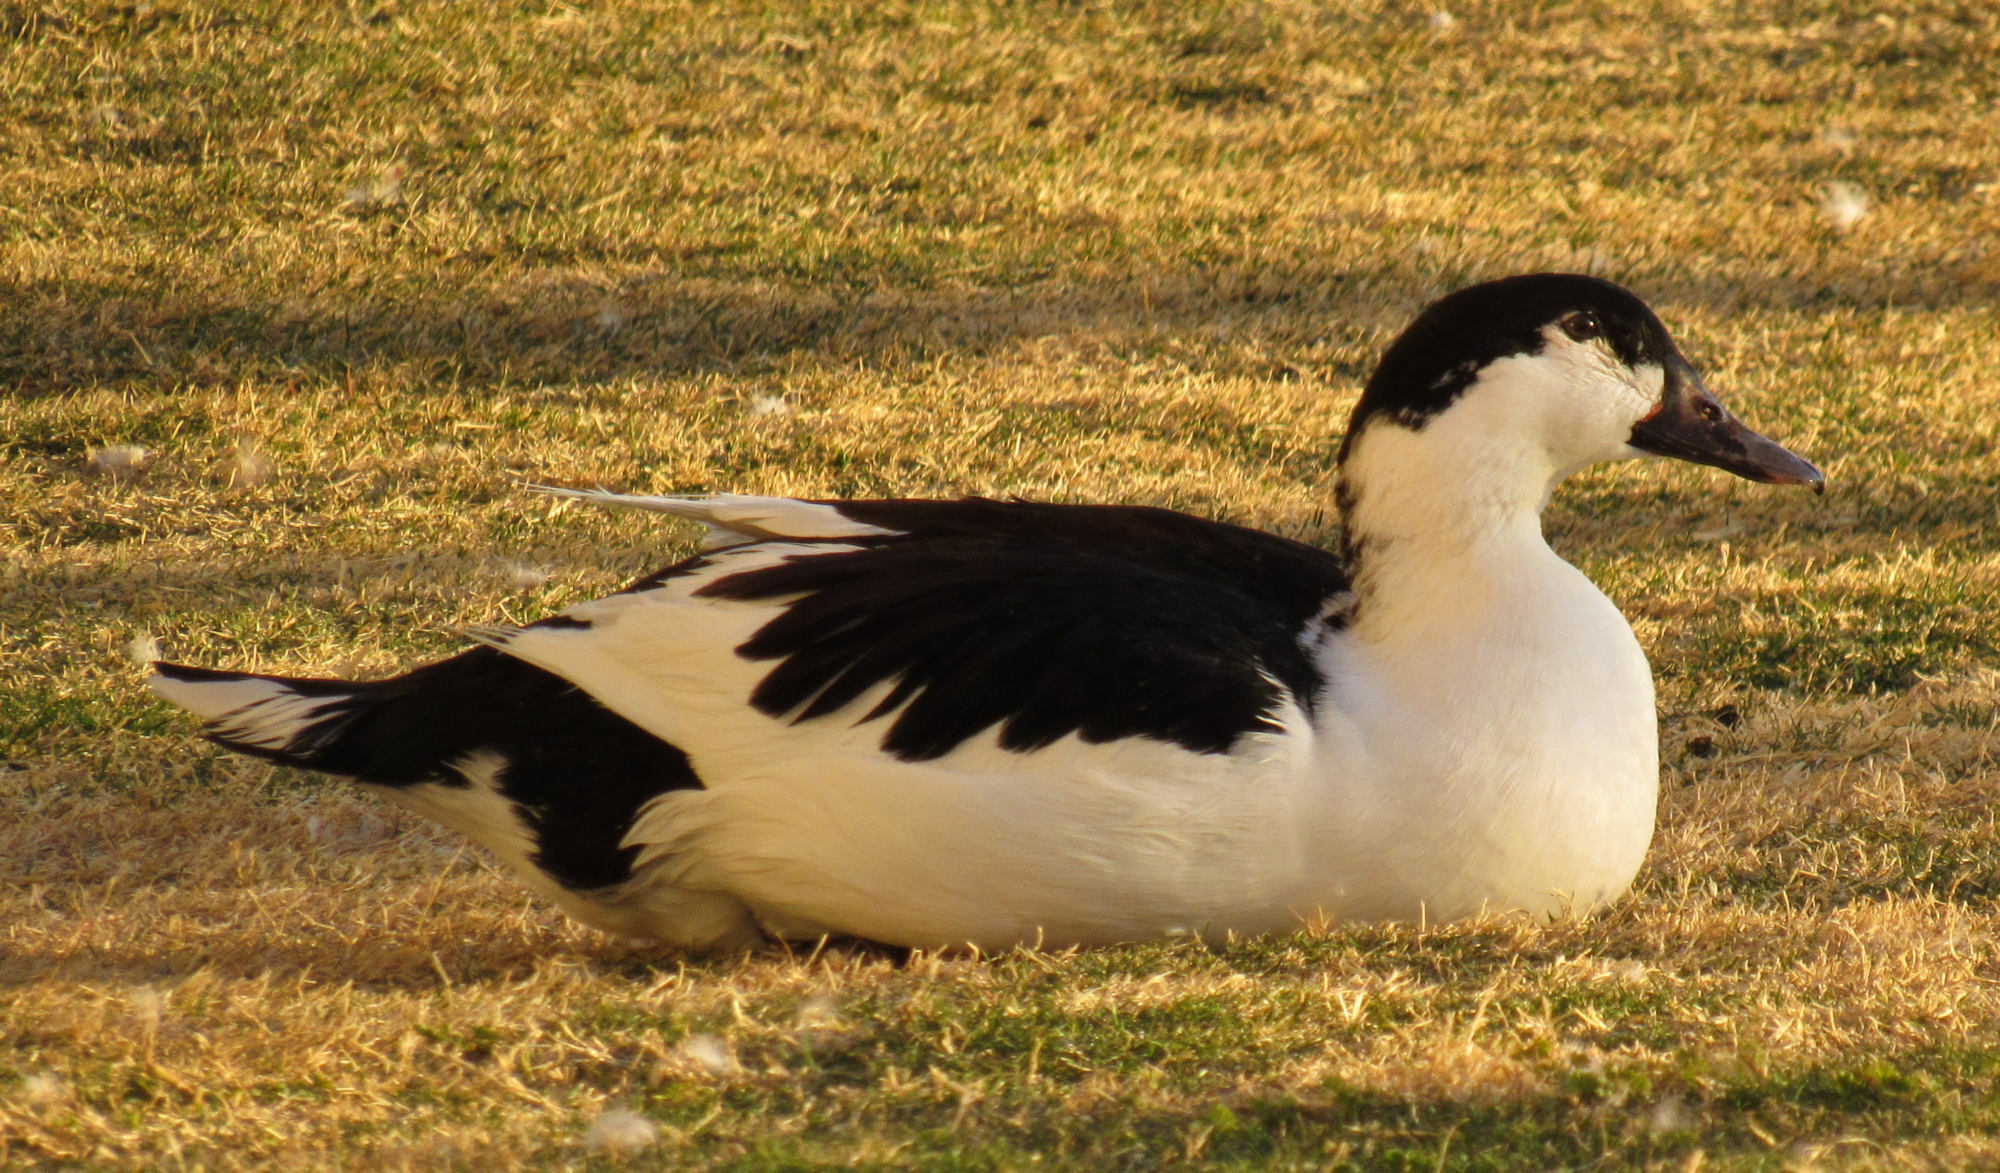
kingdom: Animalia
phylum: Chordata
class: Aves
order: Anseriformes
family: Anatidae
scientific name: Anatidae
